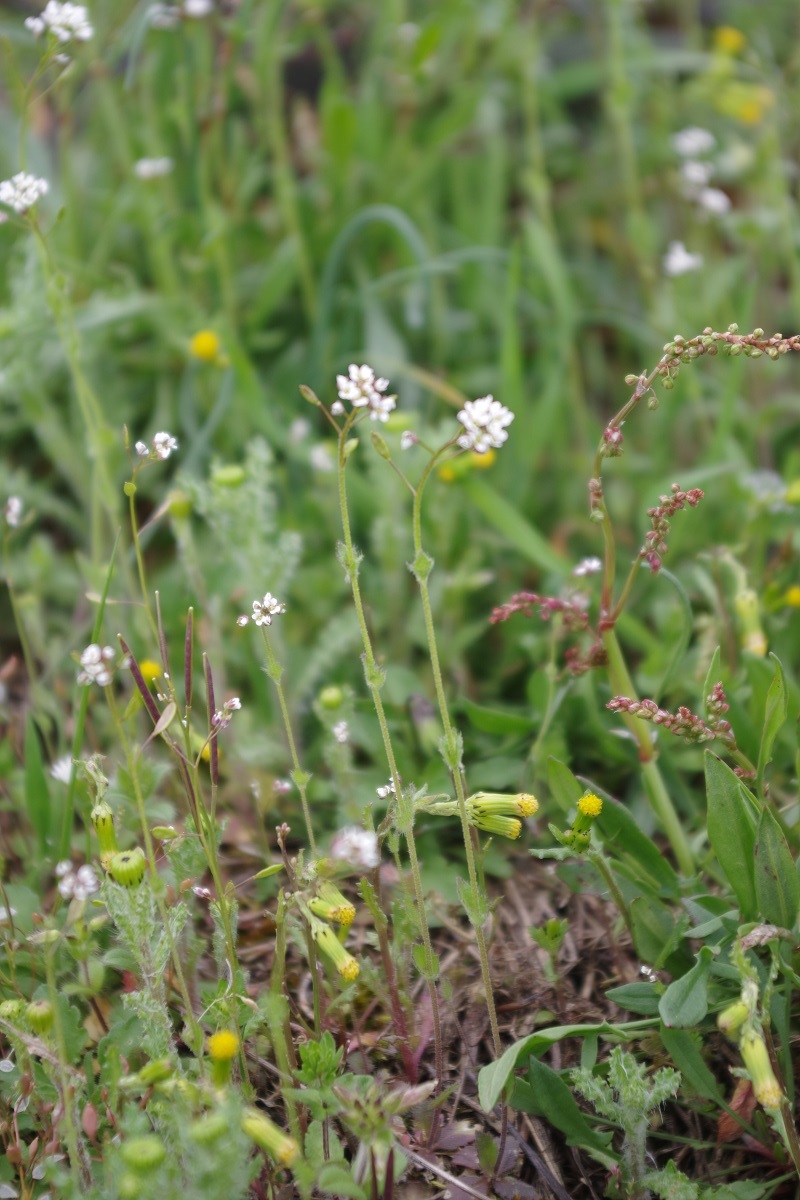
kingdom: Plantae
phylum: Tracheophyta
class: Magnoliopsida
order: Brassicales
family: Brassicaceae
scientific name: Brassicaceae
